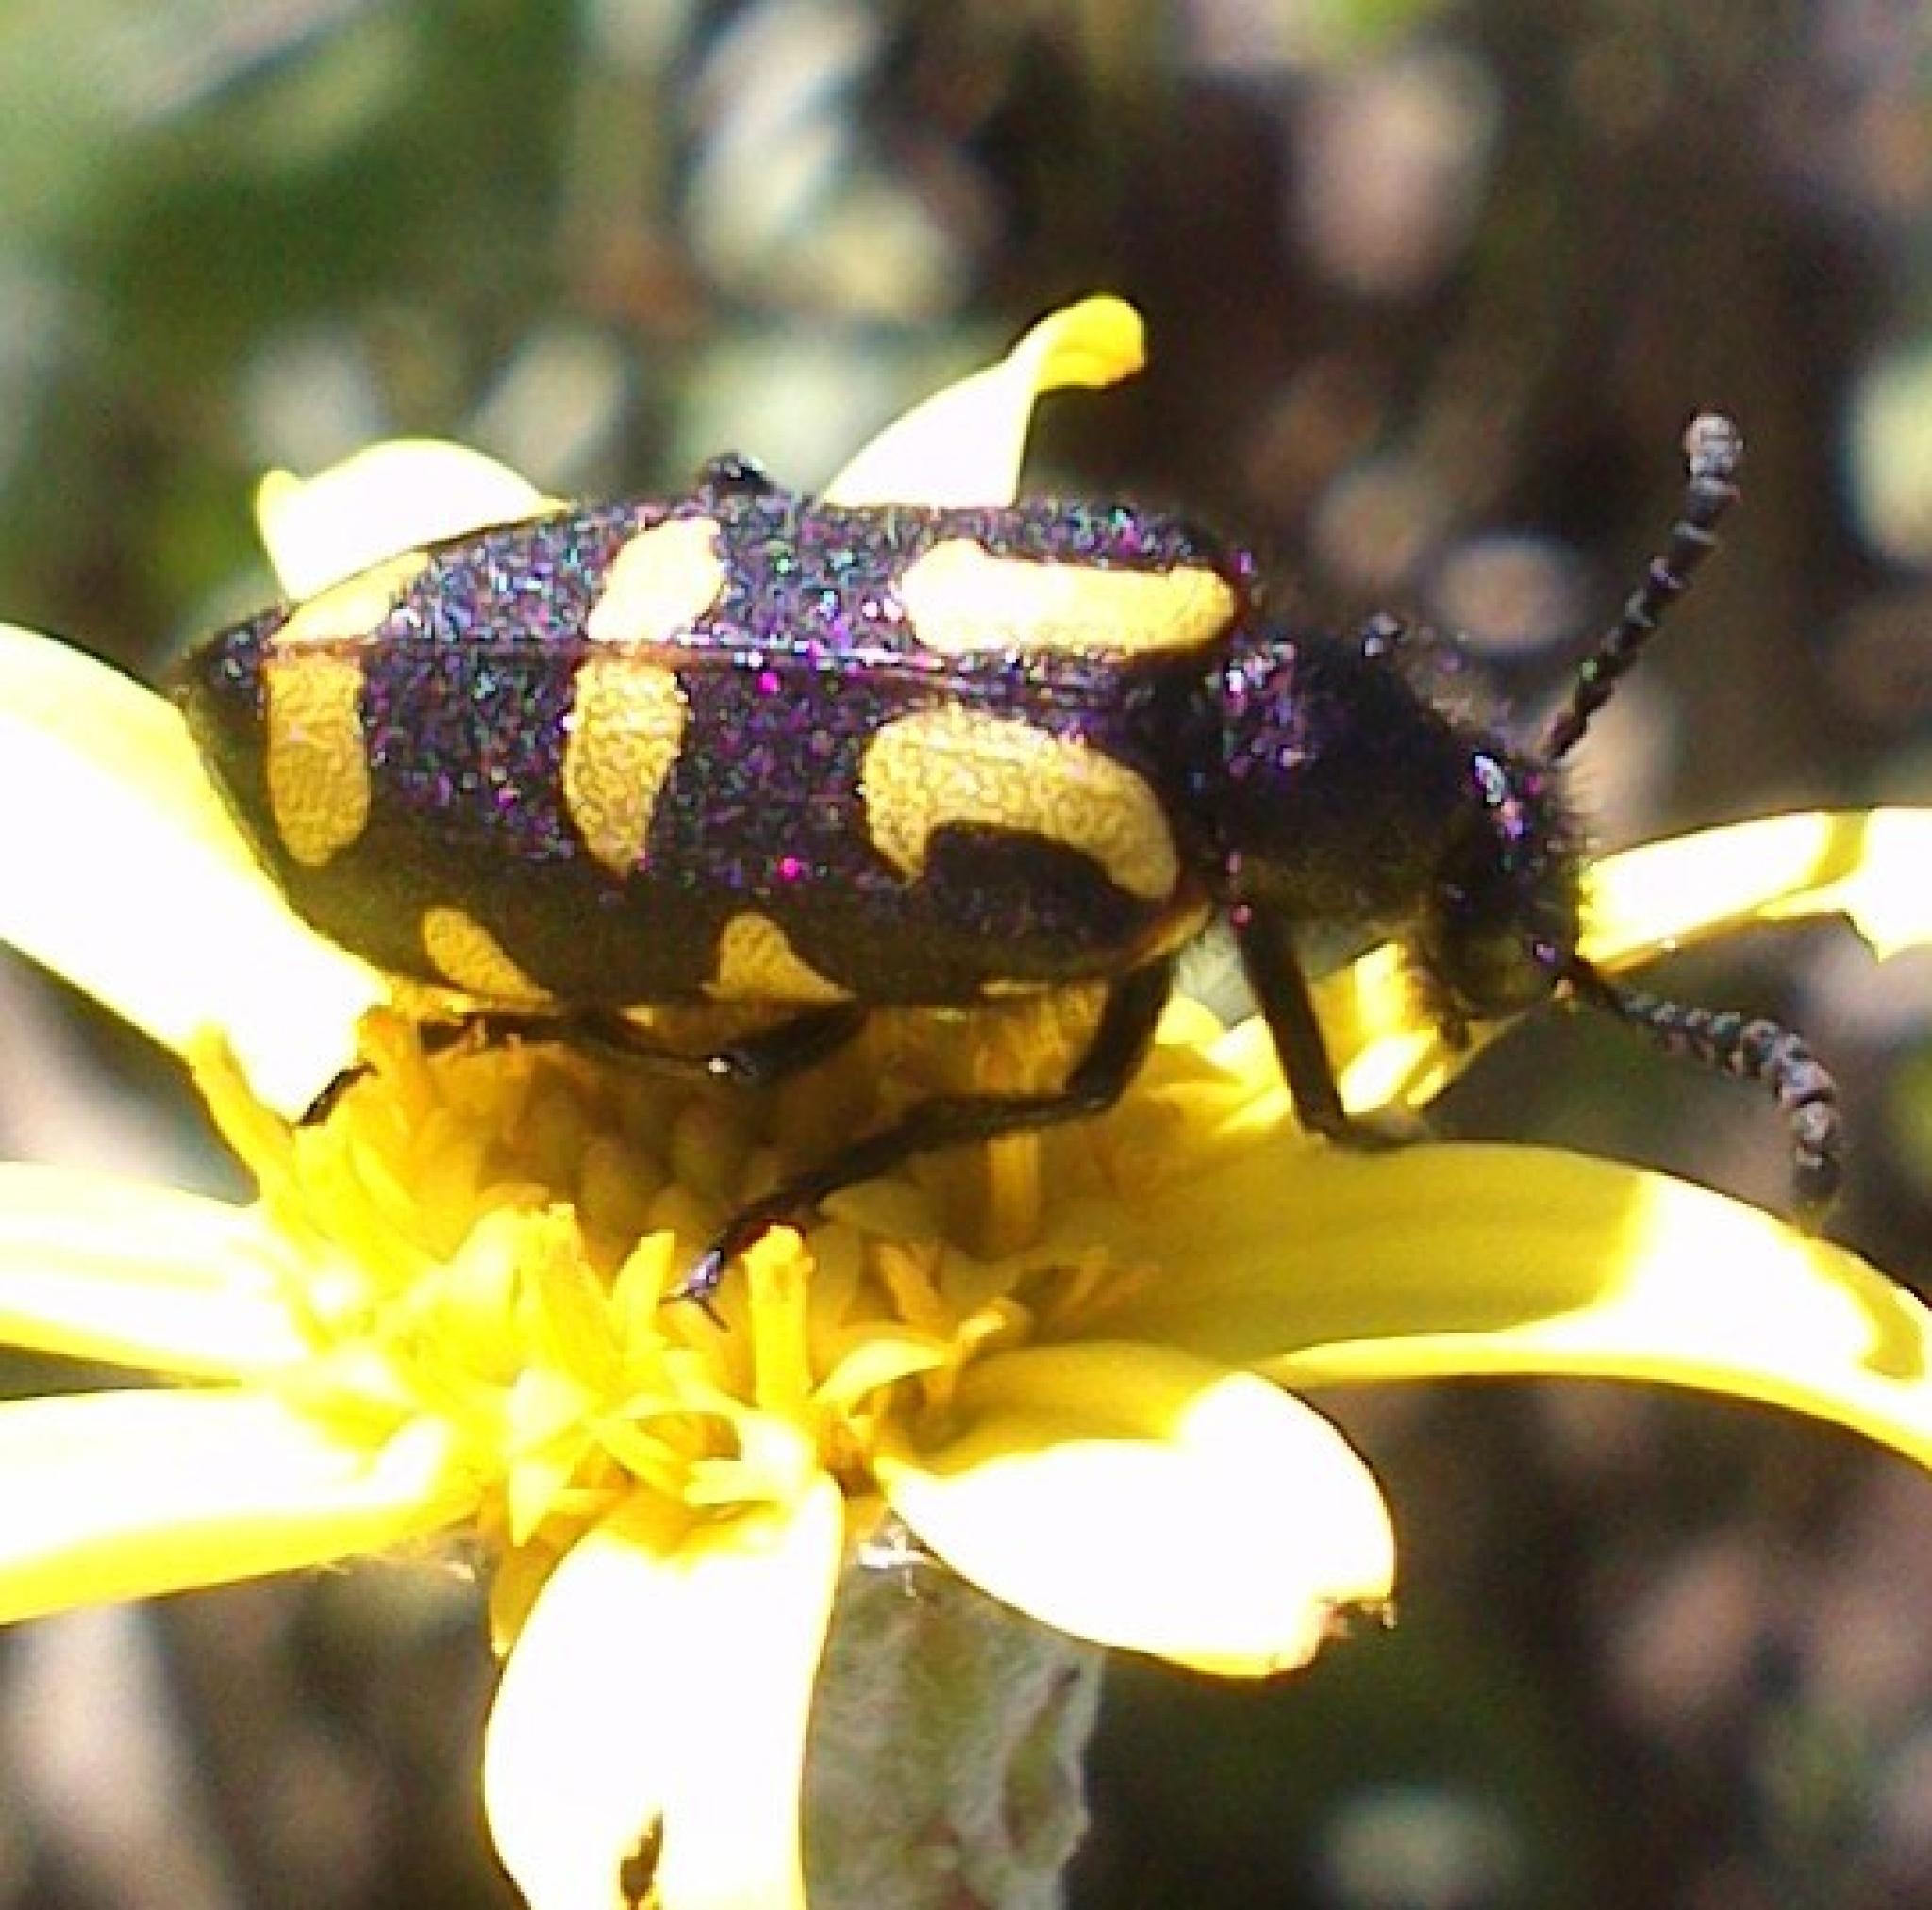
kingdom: Animalia
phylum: Arthropoda
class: Insecta
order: Coleoptera
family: Meloidae
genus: Ceroctis
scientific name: Ceroctis capensis
